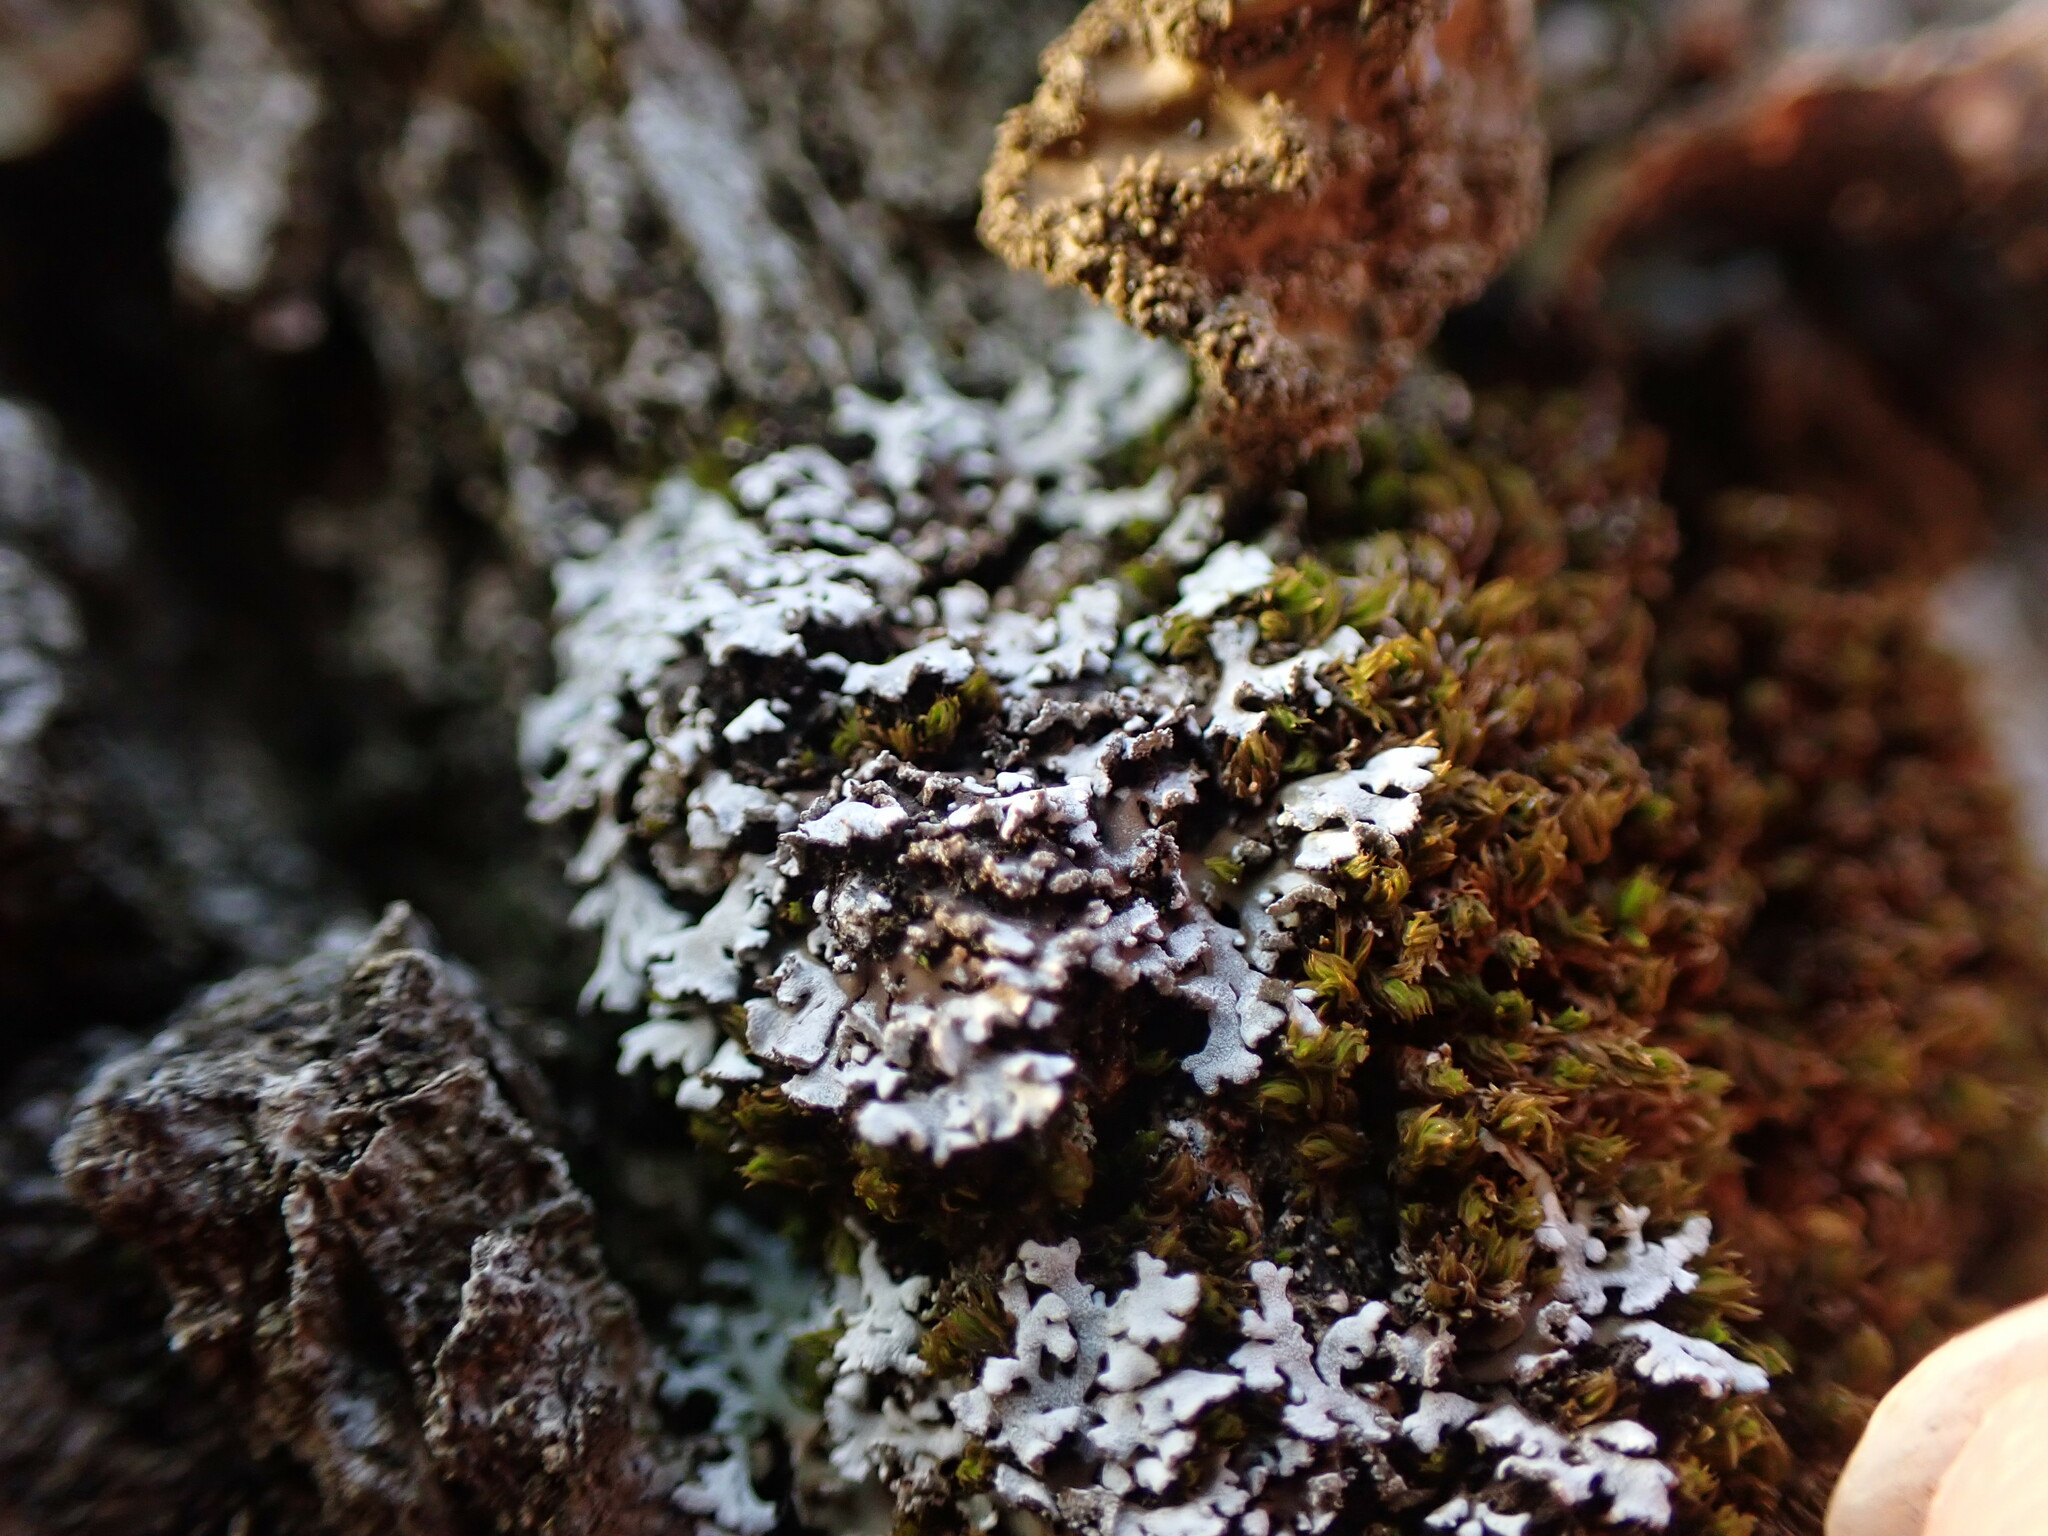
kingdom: Fungi
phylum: Ascomycota
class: Lecanoromycetes
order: Caliciales
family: Physciaceae
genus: Physconia
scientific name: Physconia perisidiosa
